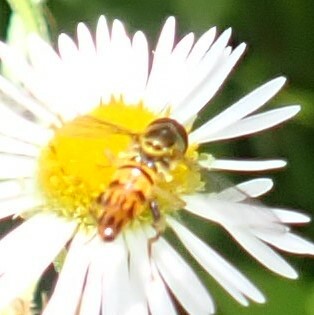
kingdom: Animalia
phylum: Arthropoda
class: Insecta
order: Diptera
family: Syrphidae
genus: Toxomerus
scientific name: Toxomerus geminatus
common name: Eastern calligrapher
